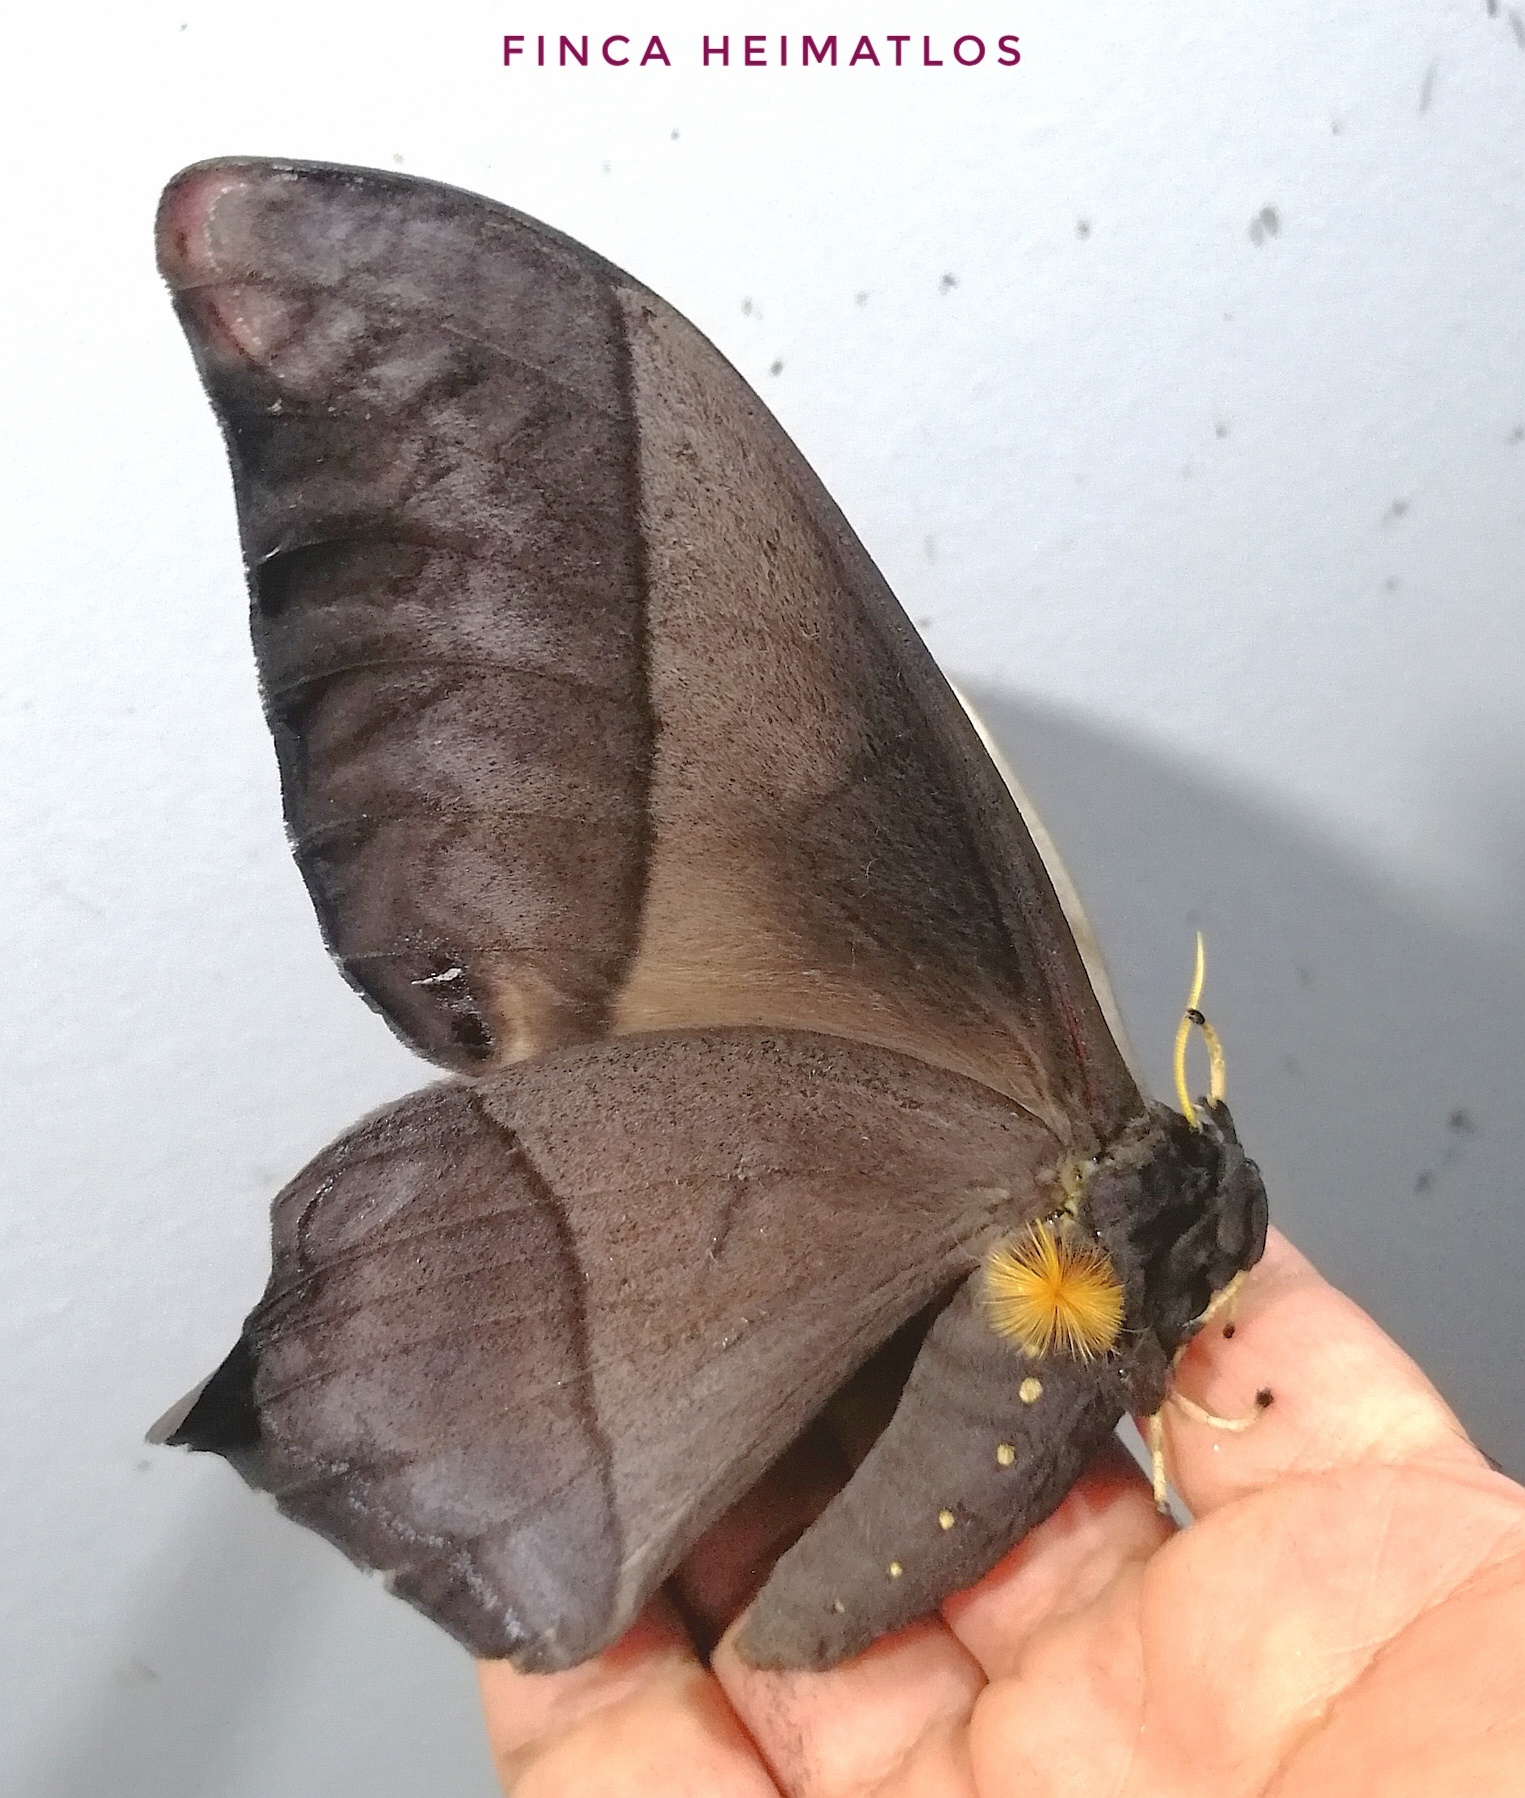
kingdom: Animalia
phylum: Arthropoda
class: Insecta
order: Lepidoptera
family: Saturniidae
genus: Arsenura
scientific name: Arsenura beebei
